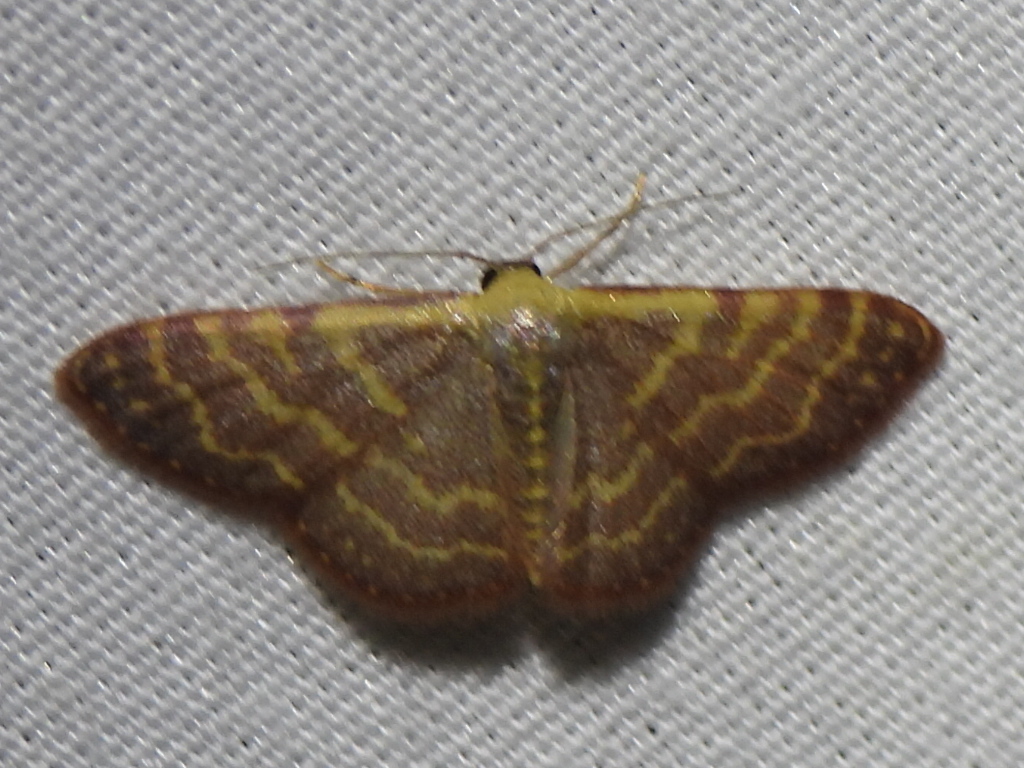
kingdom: Animalia
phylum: Arthropoda
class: Insecta
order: Lepidoptera
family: Geometridae
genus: Leptostales
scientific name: Leptostales pannaria
